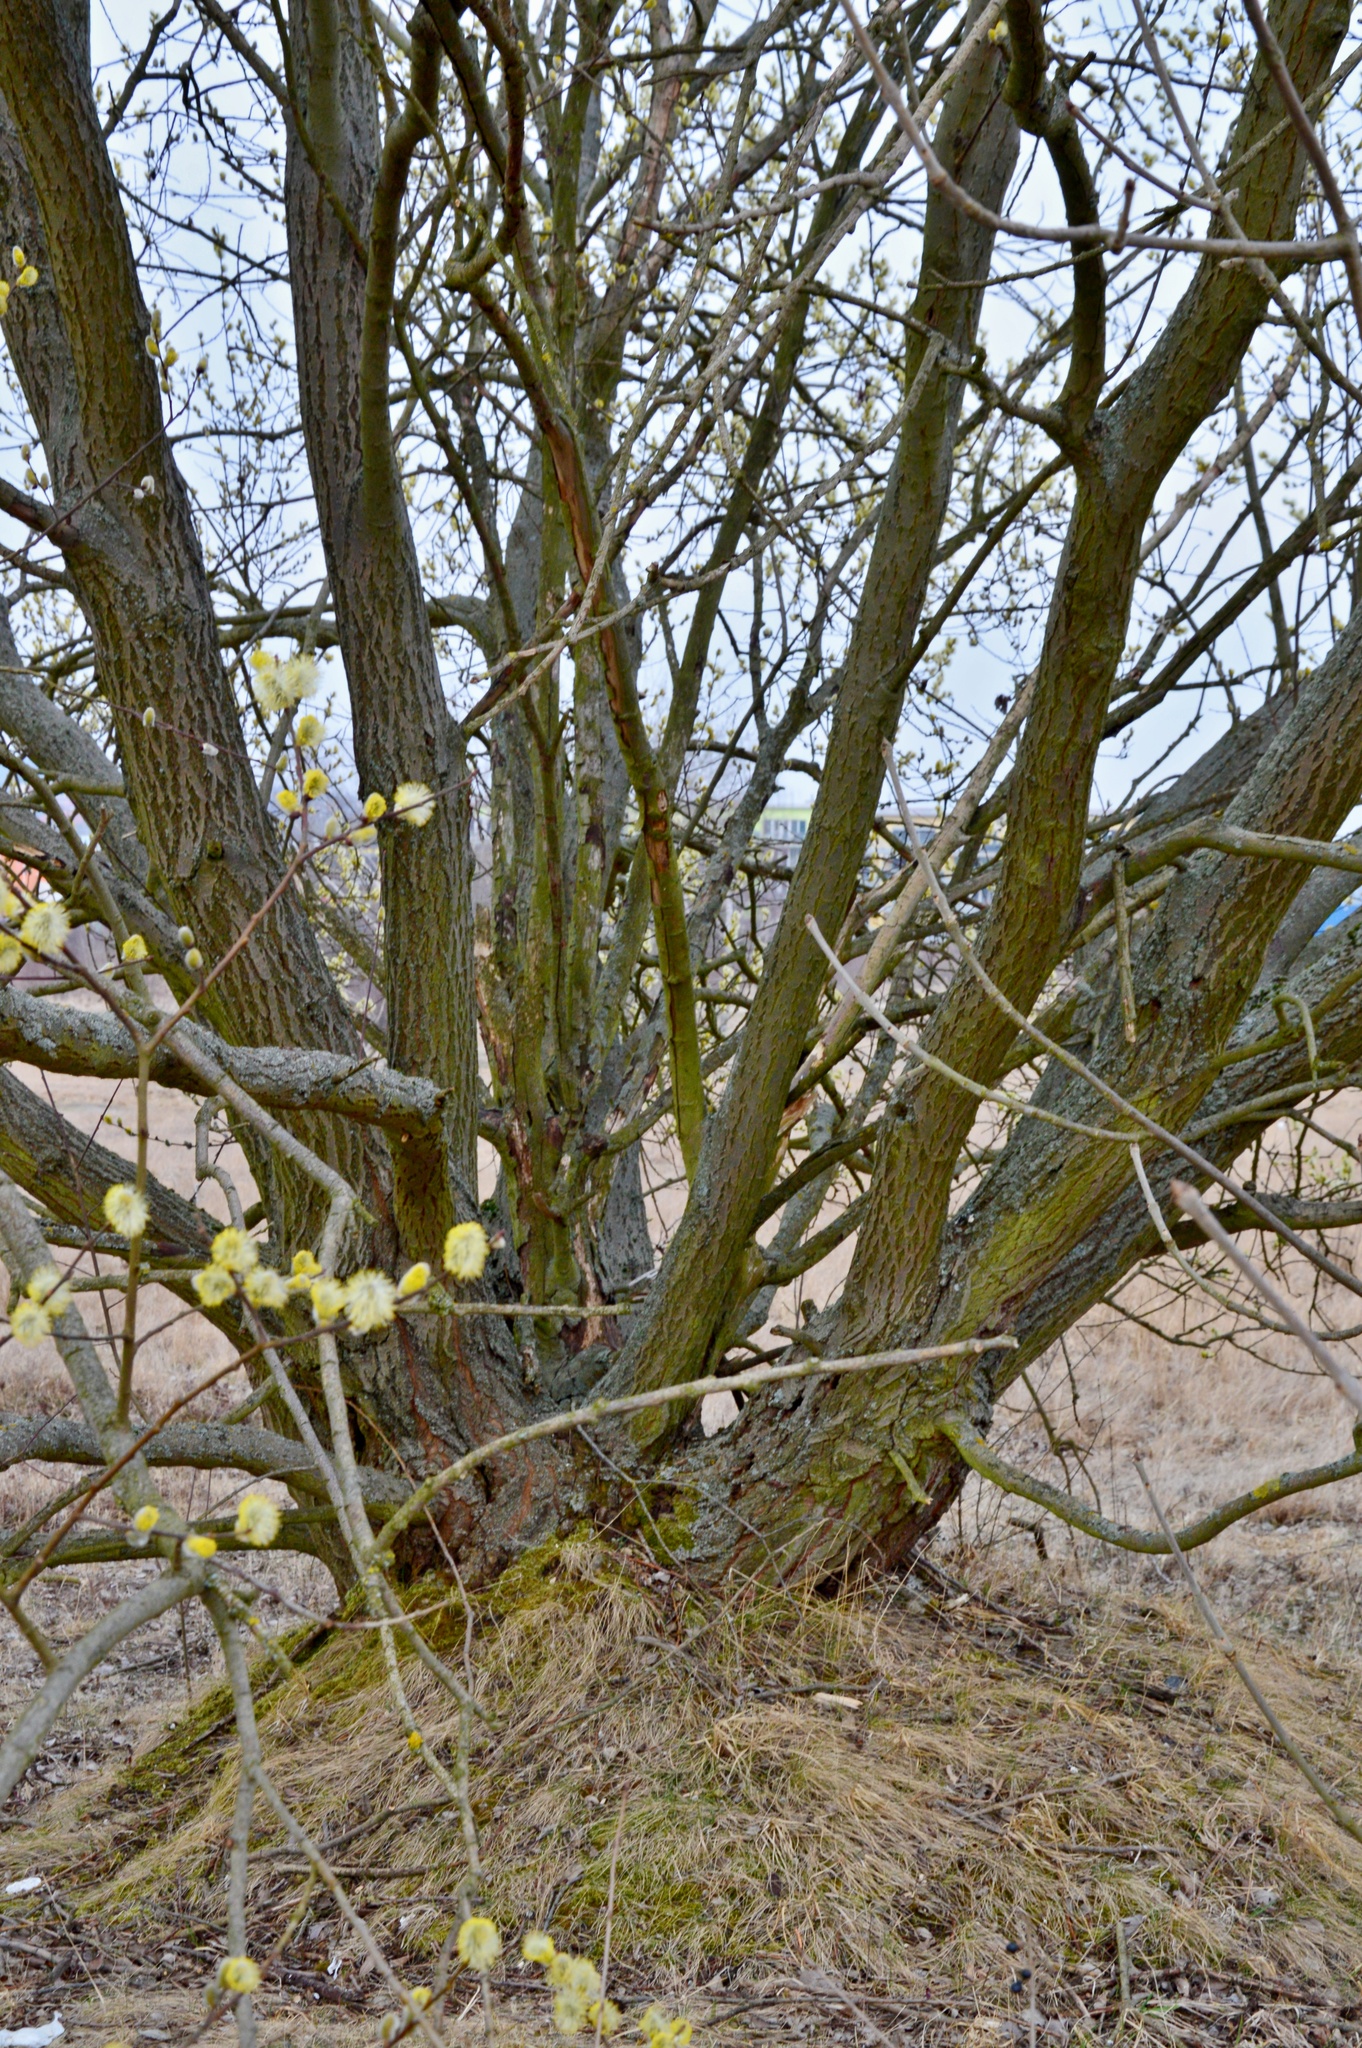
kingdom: Plantae
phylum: Tracheophyta
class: Magnoliopsida
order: Malpighiales
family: Salicaceae
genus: Salix
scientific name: Salix caprea
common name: Goat willow
